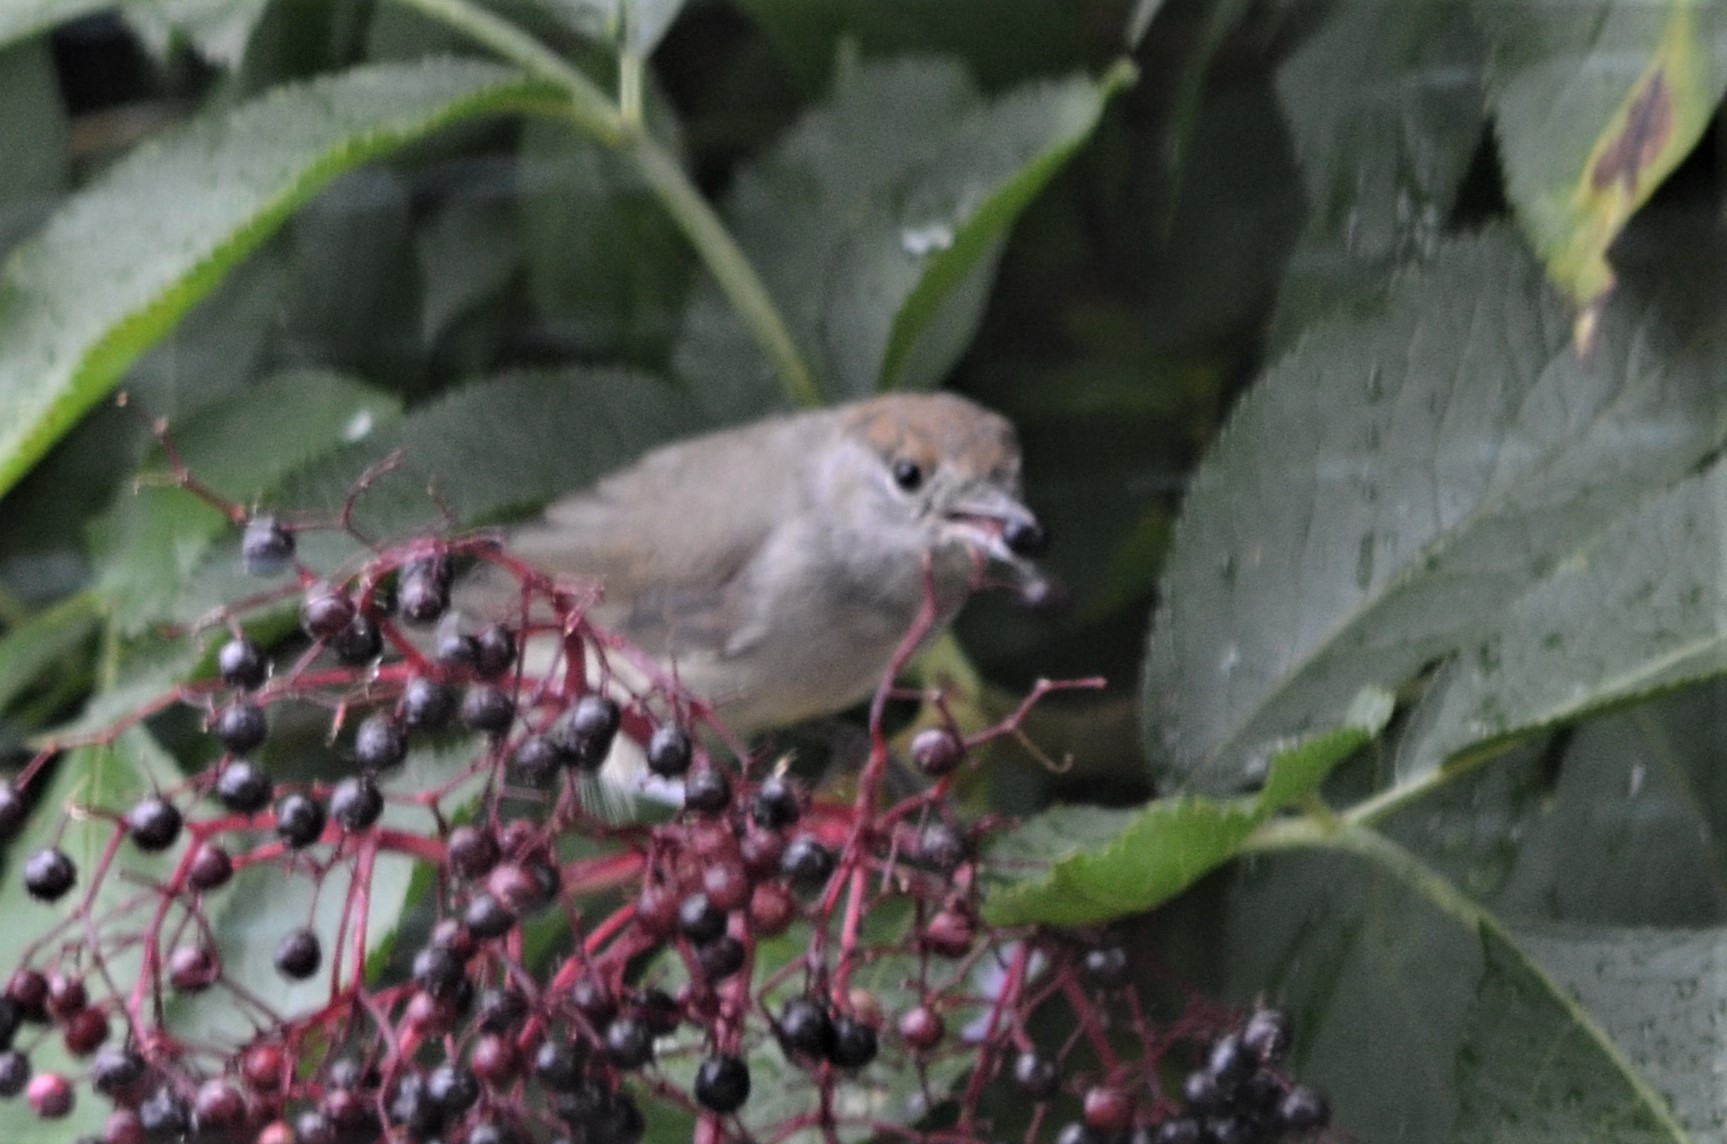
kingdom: Animalia
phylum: Chordata
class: Aves
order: Passeriformes
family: Sylviidae
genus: Sylvia
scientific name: Sylvia atricapilla
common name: Eurasian blackcap
